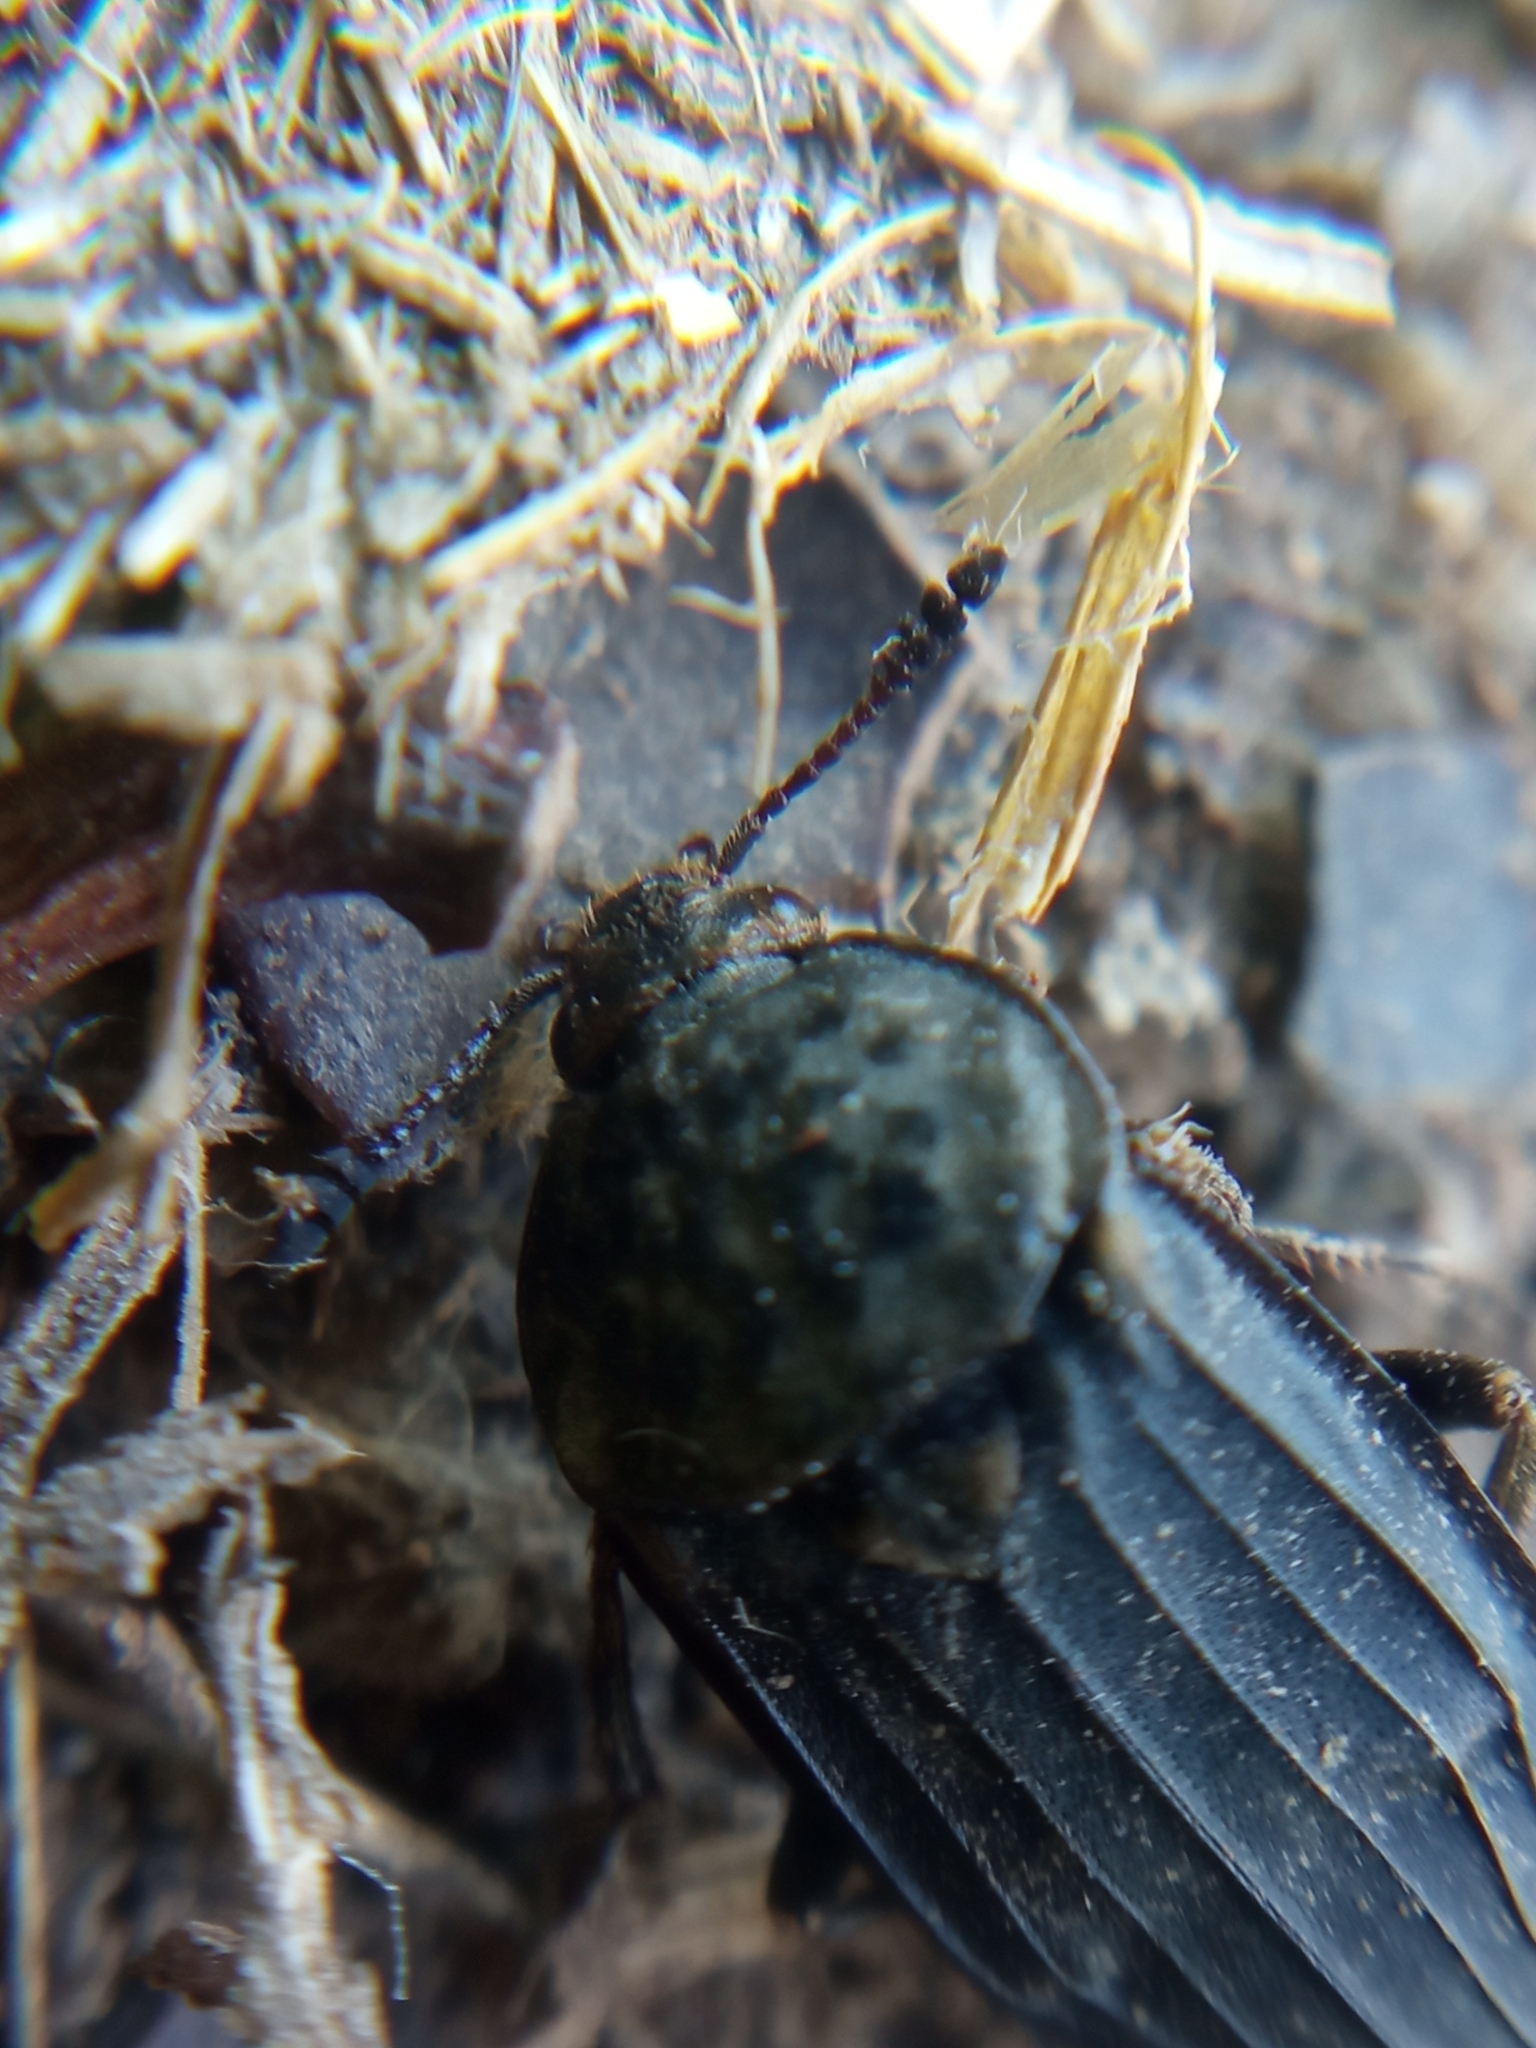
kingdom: Animalia
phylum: Arthropoda
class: Insecta
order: Coleoptera
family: Staphylinidae
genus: Thanatophilus
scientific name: Thanatophilus sinuatus
